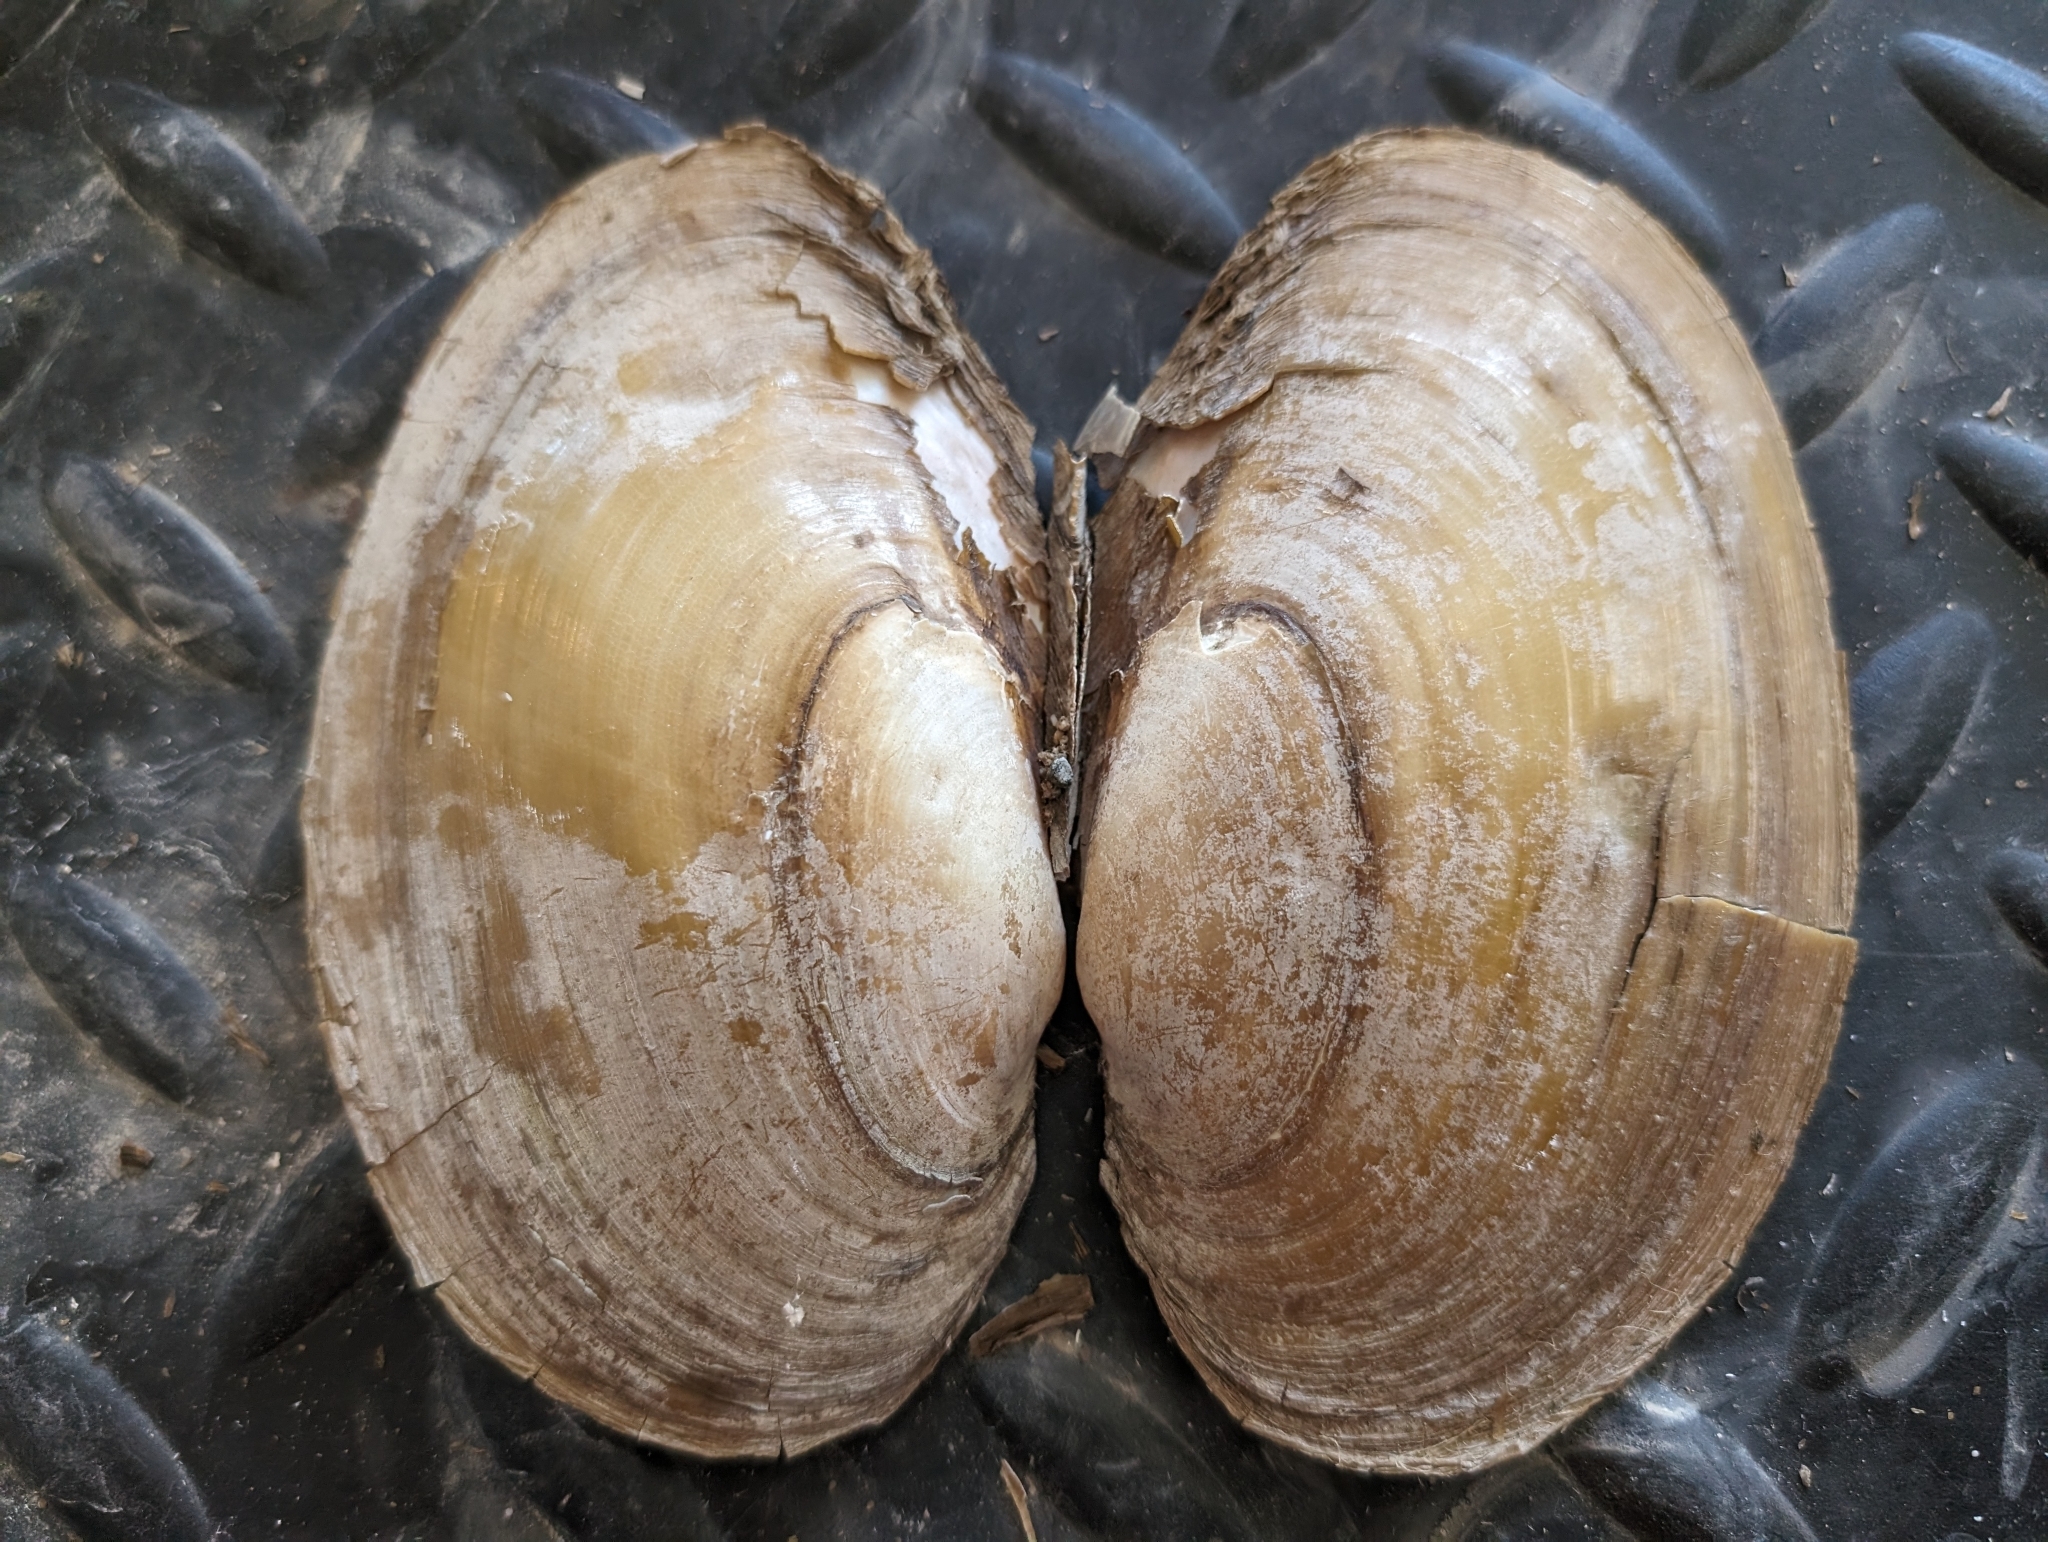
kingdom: Animalia
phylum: Mollusca
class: Bivalvia
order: Unionida
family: Unionidae
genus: Potamilus
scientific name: Potamilus fragilis
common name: Fragile papershell
